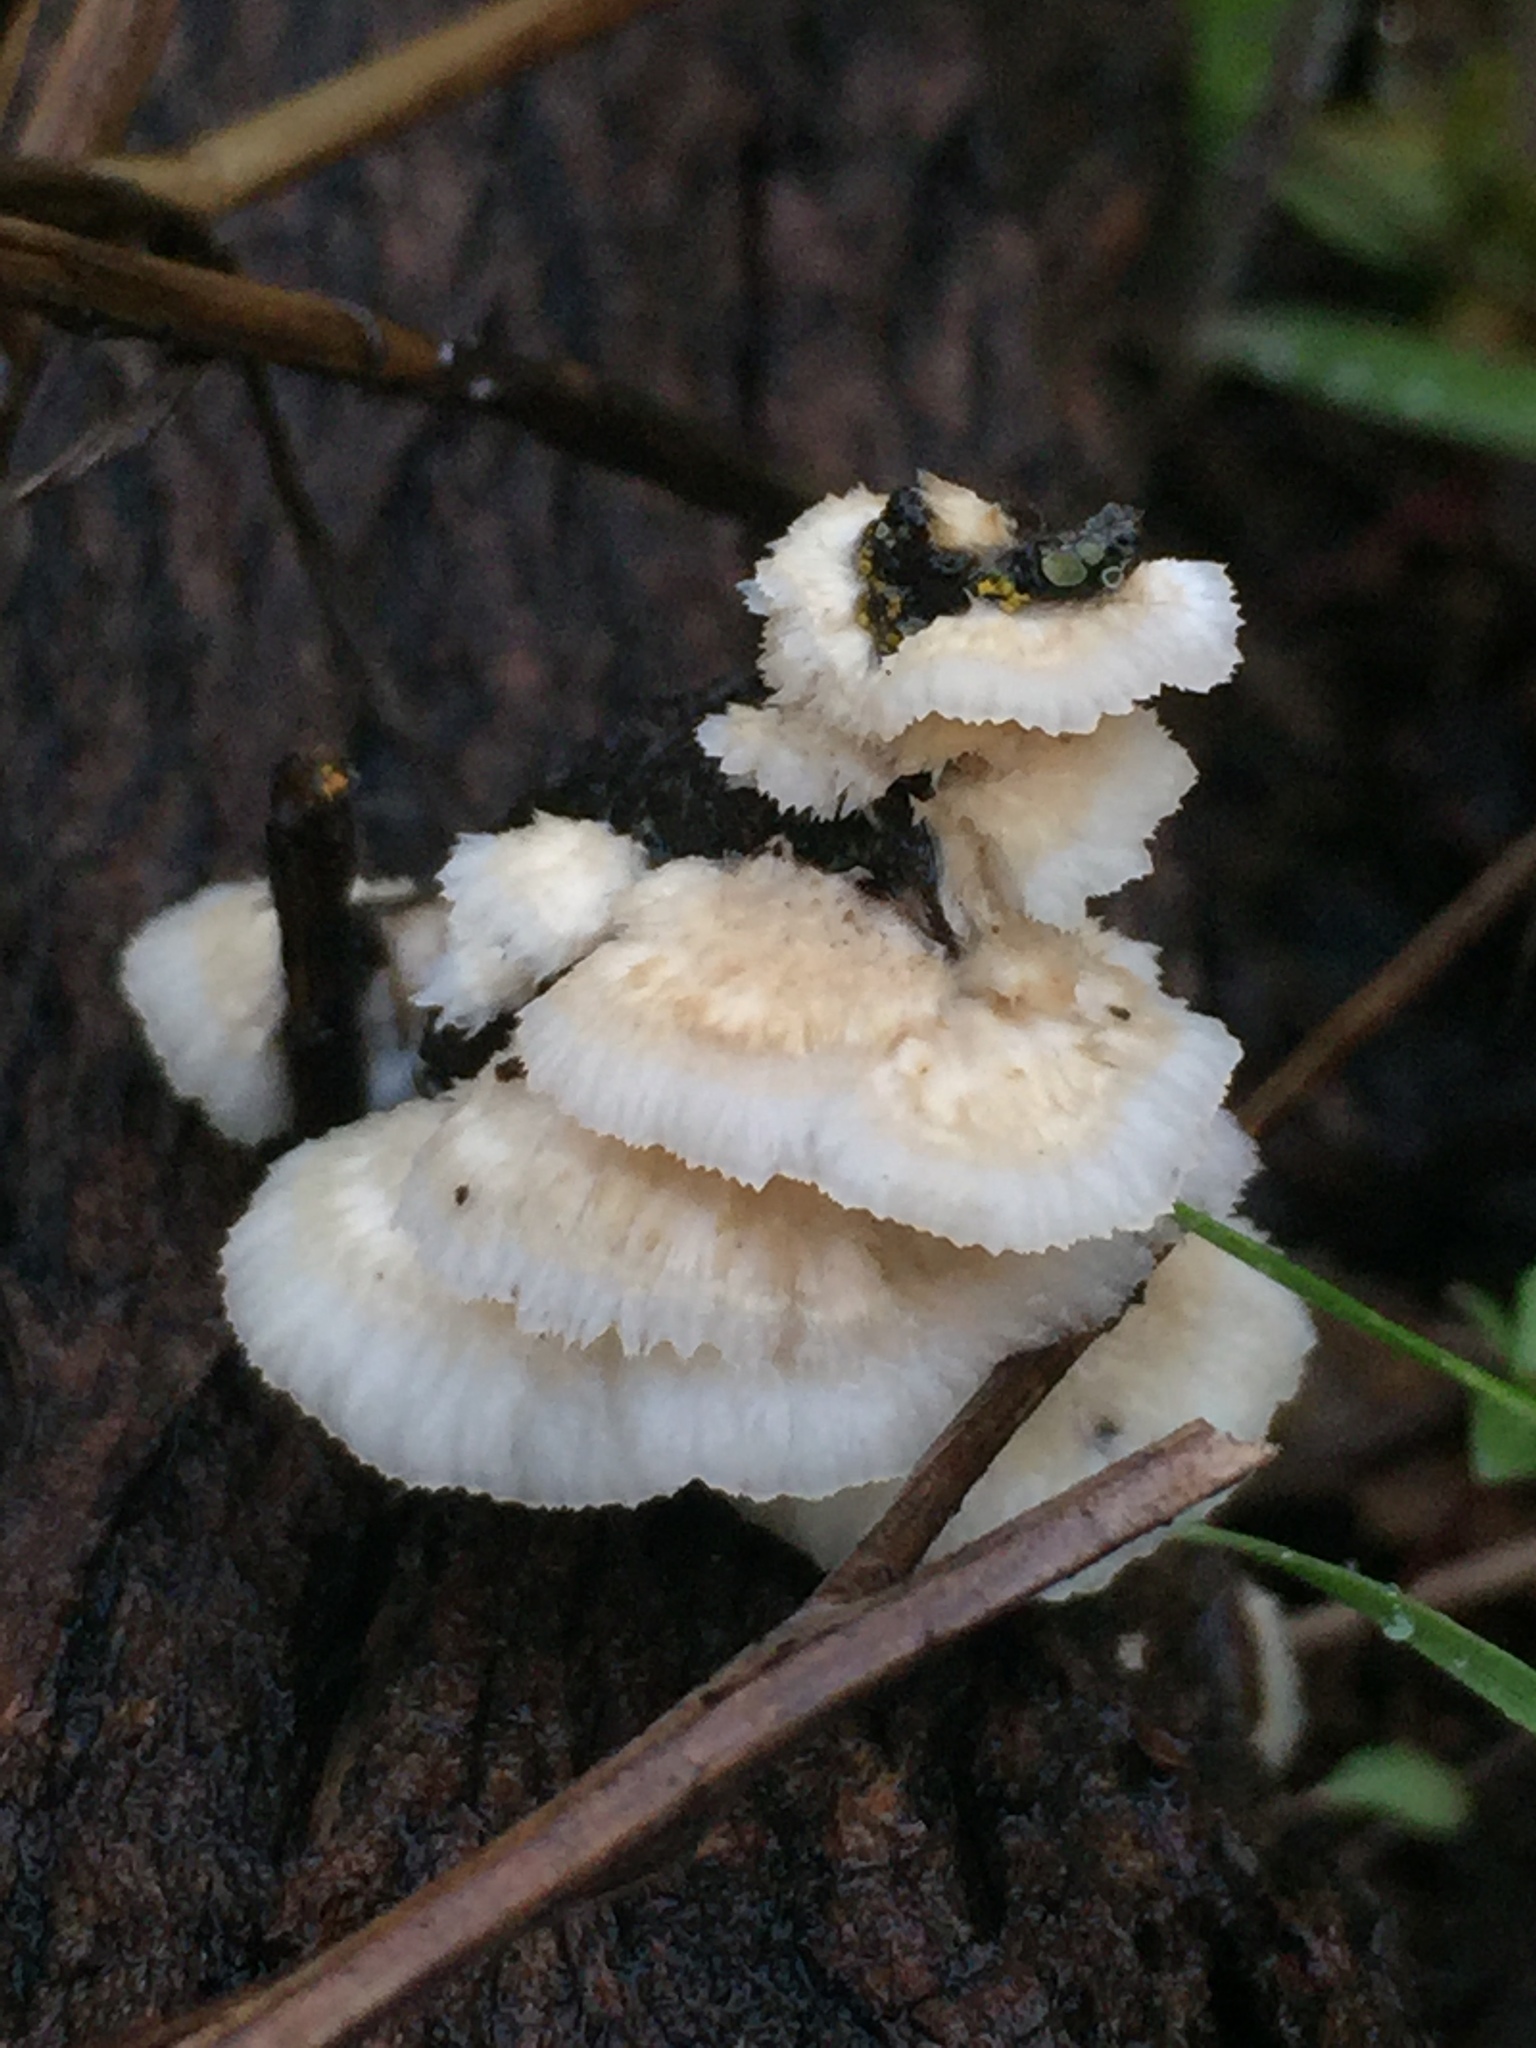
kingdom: Fungi
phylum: Basidiomycota
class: Agaricomycetes
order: Polyporales
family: Meruliaceae
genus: Phlebia
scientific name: Phlebia tremellosa
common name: Jelly rot
